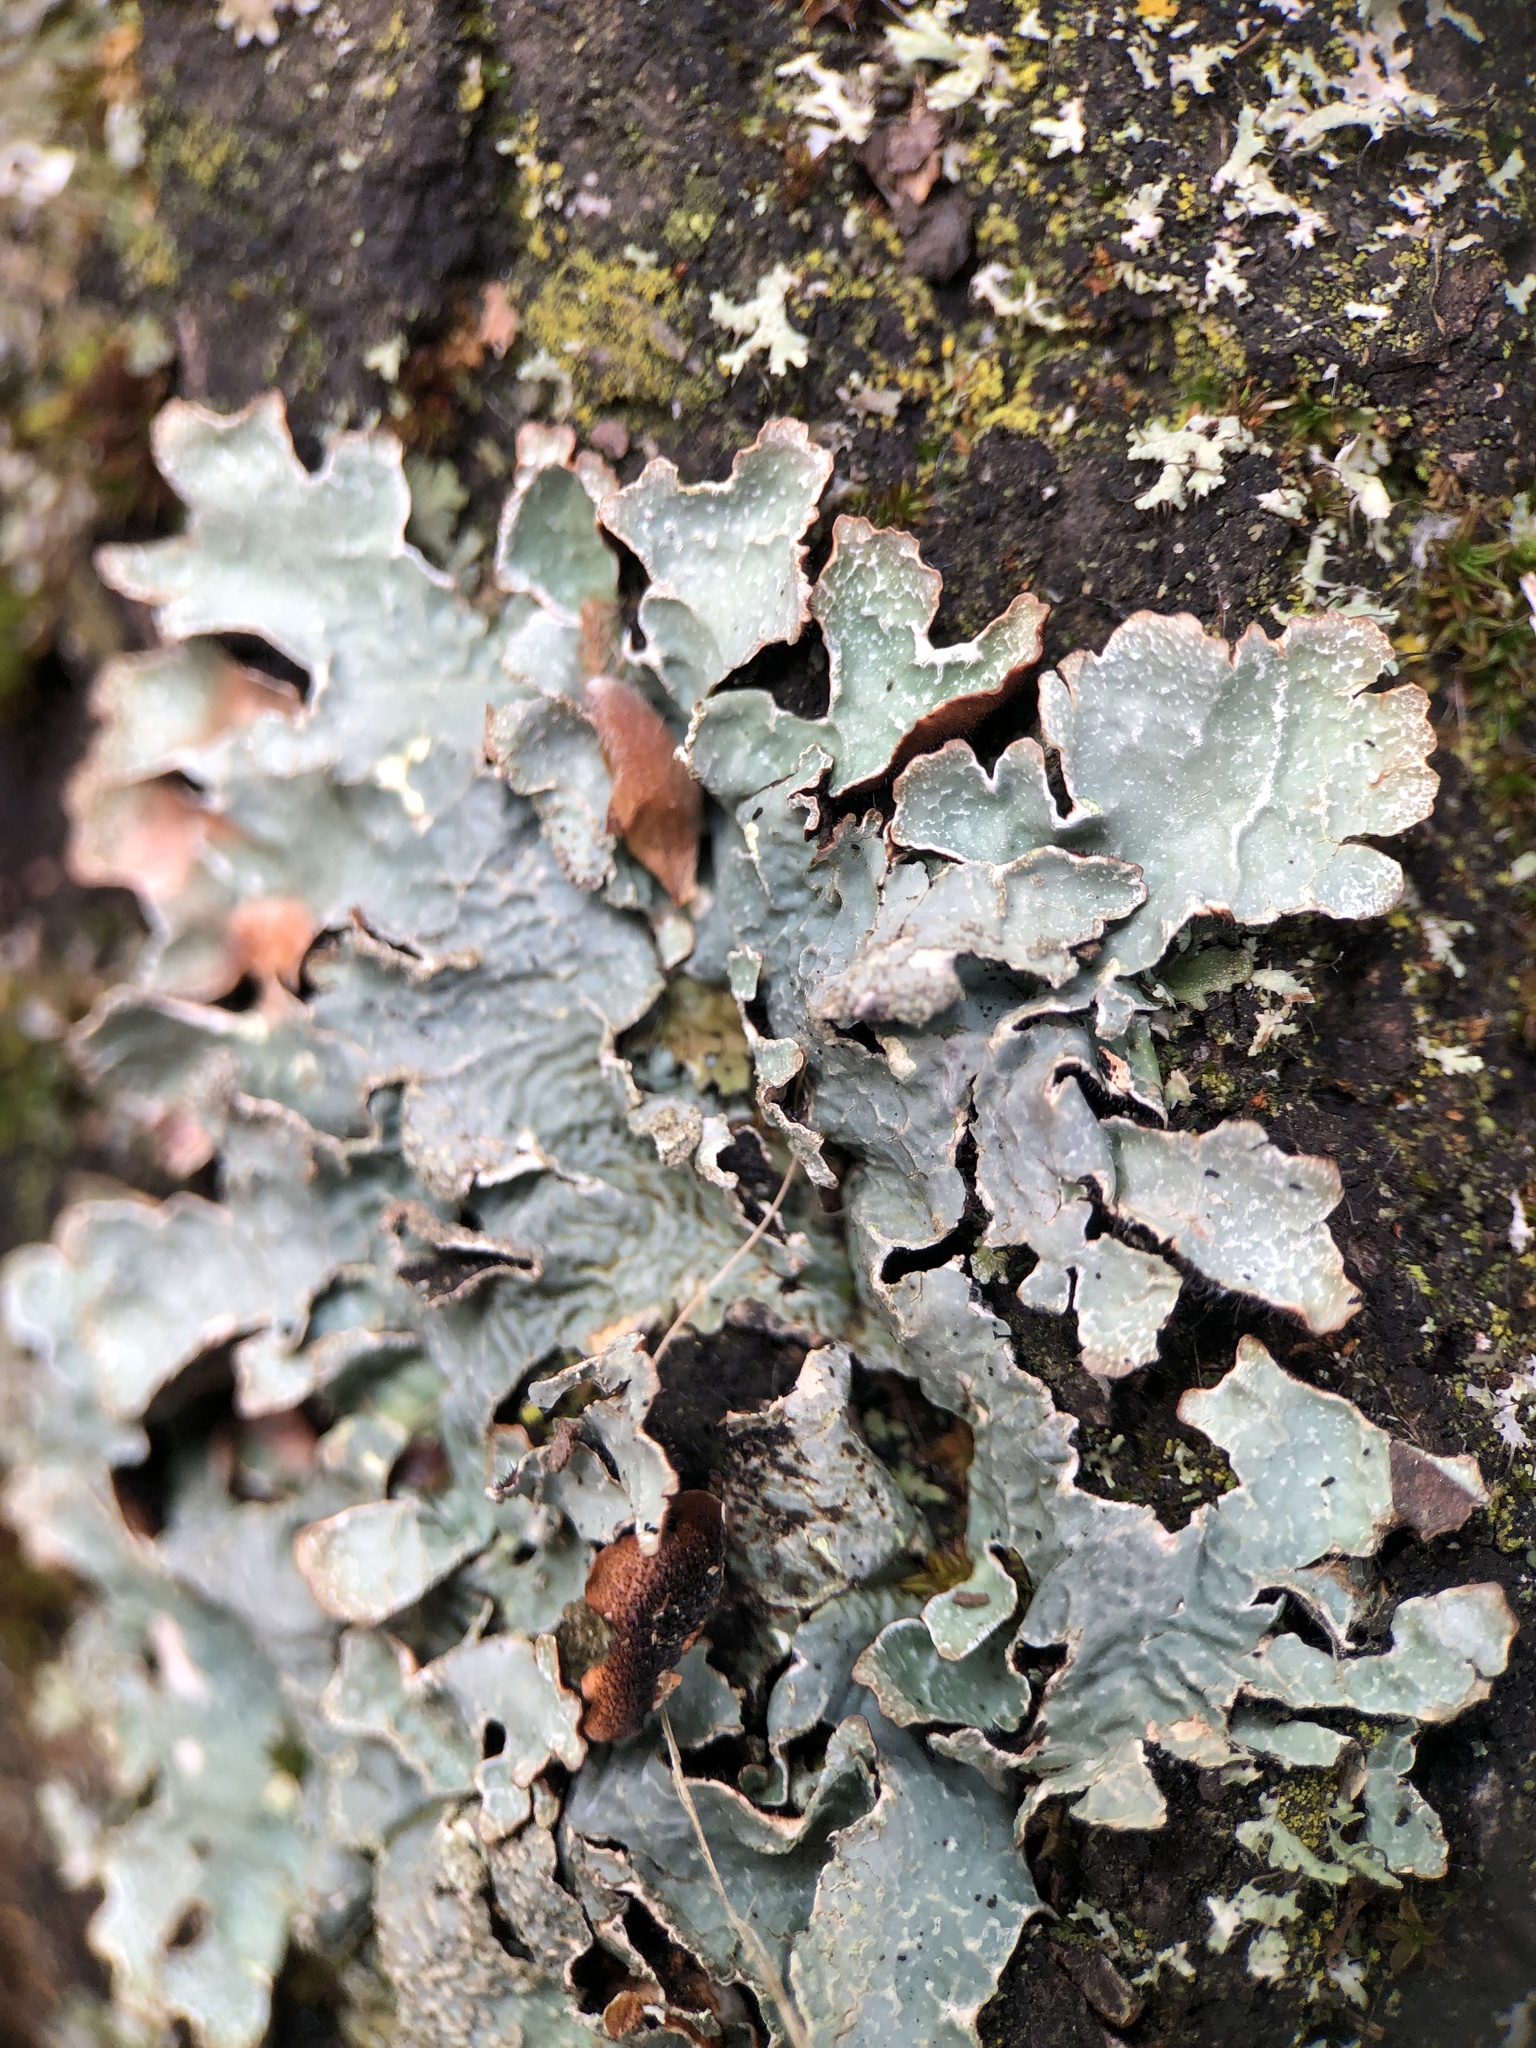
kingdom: Fungi
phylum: Ascomycota
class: Lecanoromycetes
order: Lecanorales
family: Parmeliaceae
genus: Parmelia
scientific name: Parmelia sulcata
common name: Netted shield lichen
